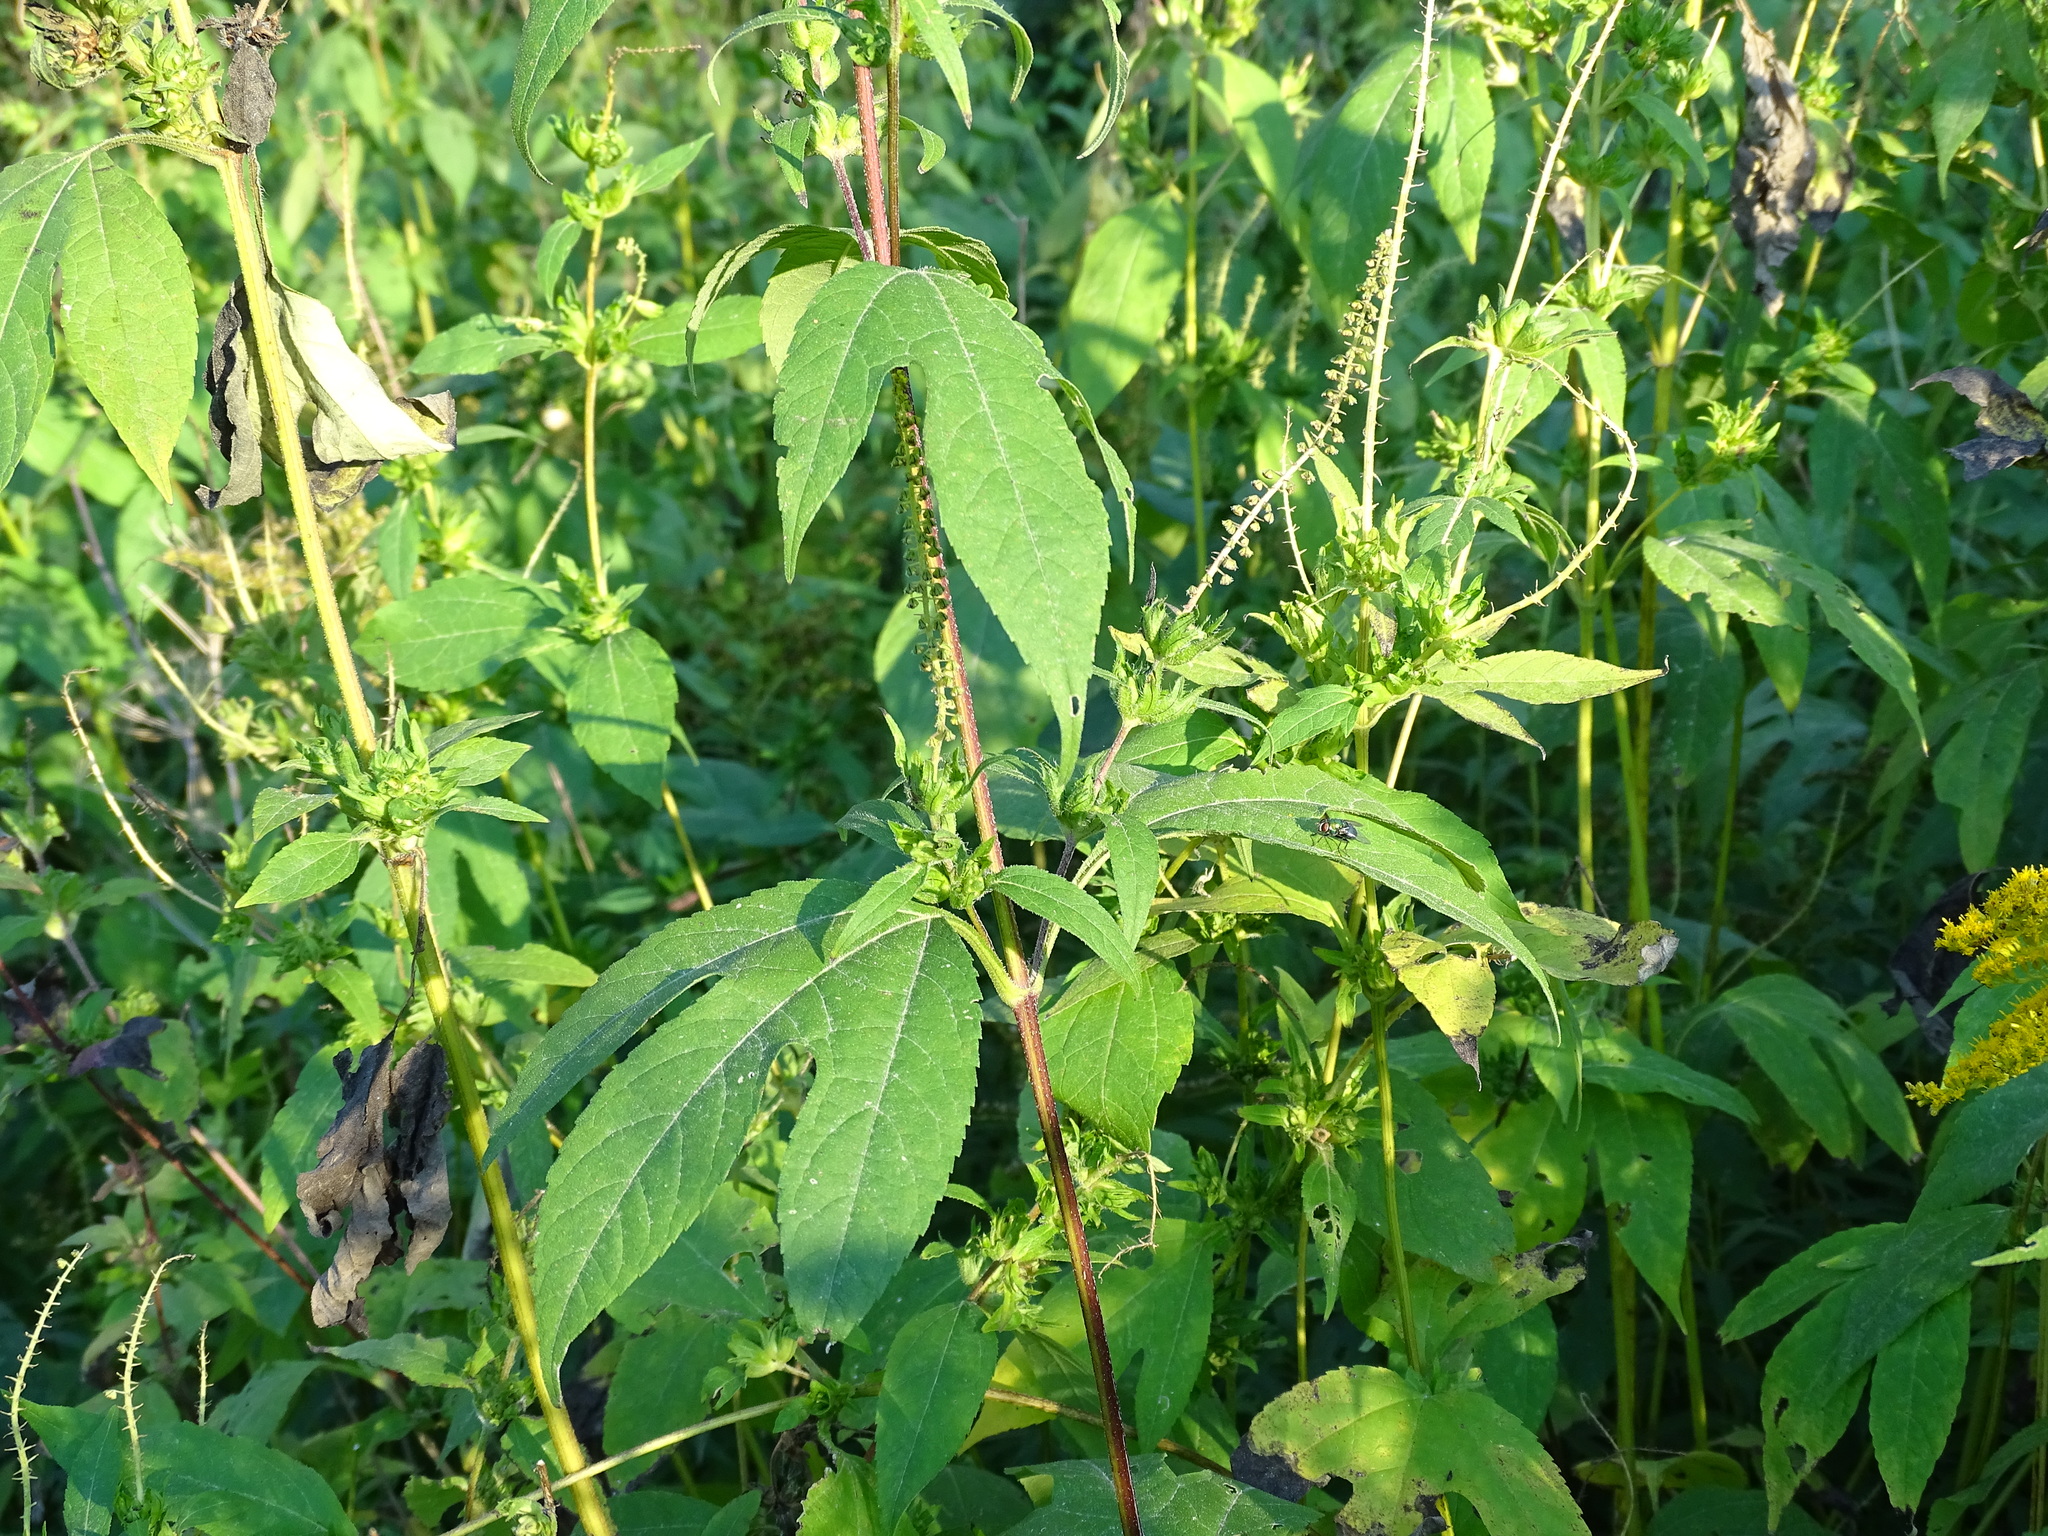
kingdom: Plantae
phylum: Tracheophyta
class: Magnoliopsida
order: Asterales
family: Asteraceae
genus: Ambrosia
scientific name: Ambrosia trifida
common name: Giant ragweed
